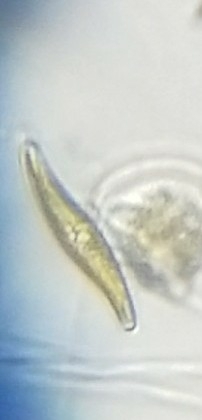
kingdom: Chromista
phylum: Ochrophyta
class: Bacillariophyceae
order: Naviculales
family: Pleurosigmataceae
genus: Gyrosigma
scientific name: Gyrosigma
